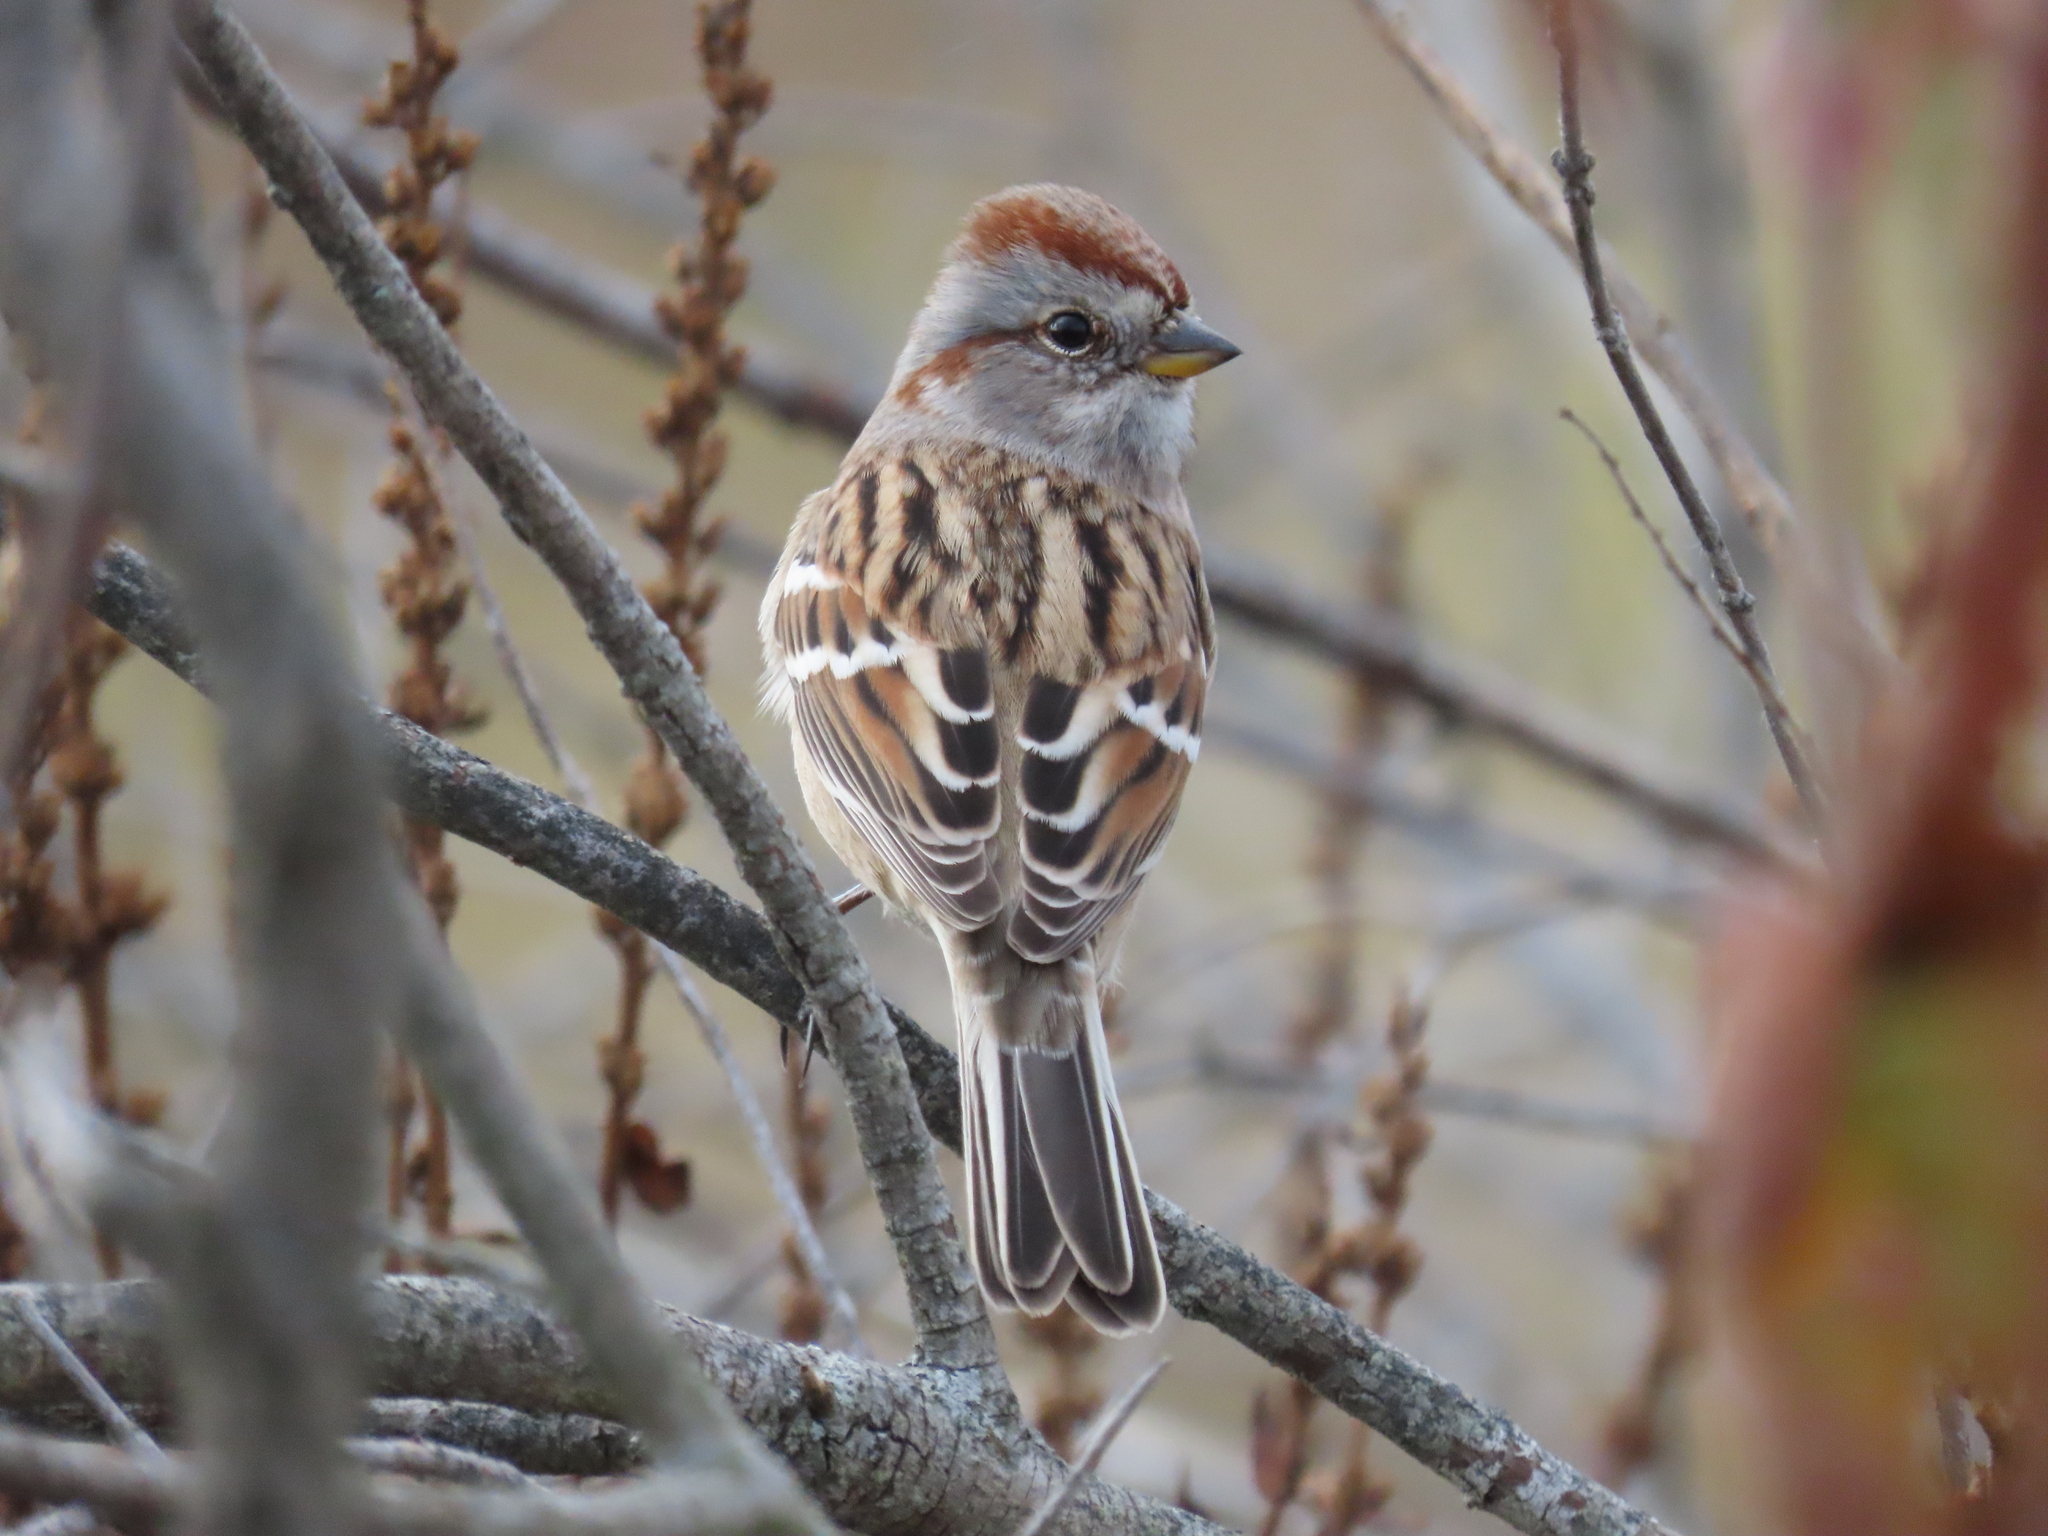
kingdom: Animalia
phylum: Chordata
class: Aves
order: Passeriformes
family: Passerellidae
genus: Spizelloides
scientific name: Spizelloides arborea
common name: American tree sparrow
